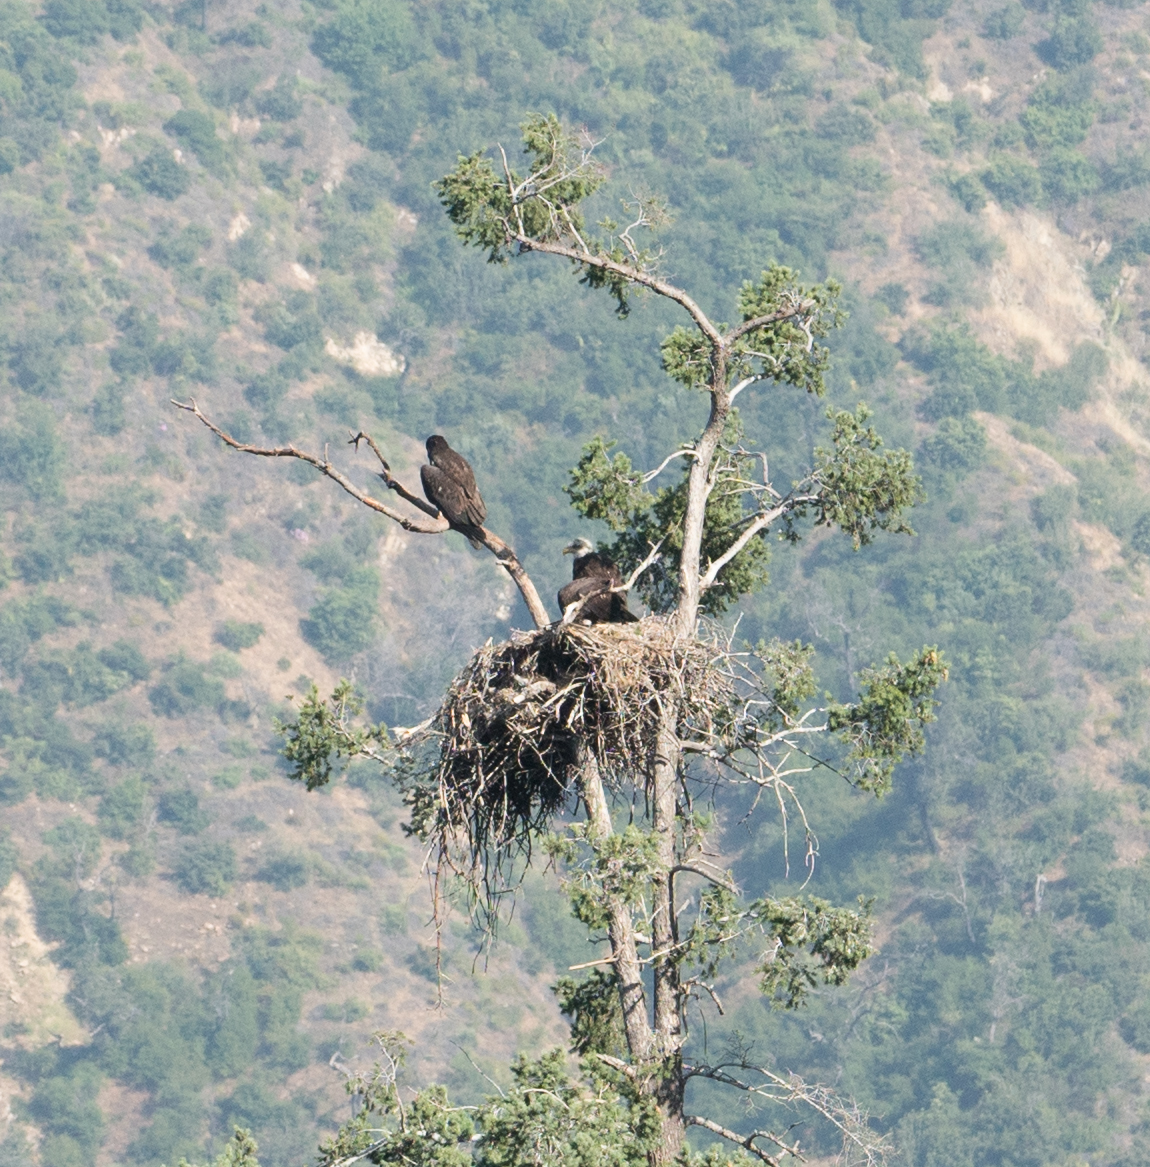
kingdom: Animalia
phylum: Chordata
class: Aves
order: Accipitriformes
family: Accipitridae
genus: Haliaeetus
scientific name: Haliaeetus leucocephalus
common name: Bald eagle
